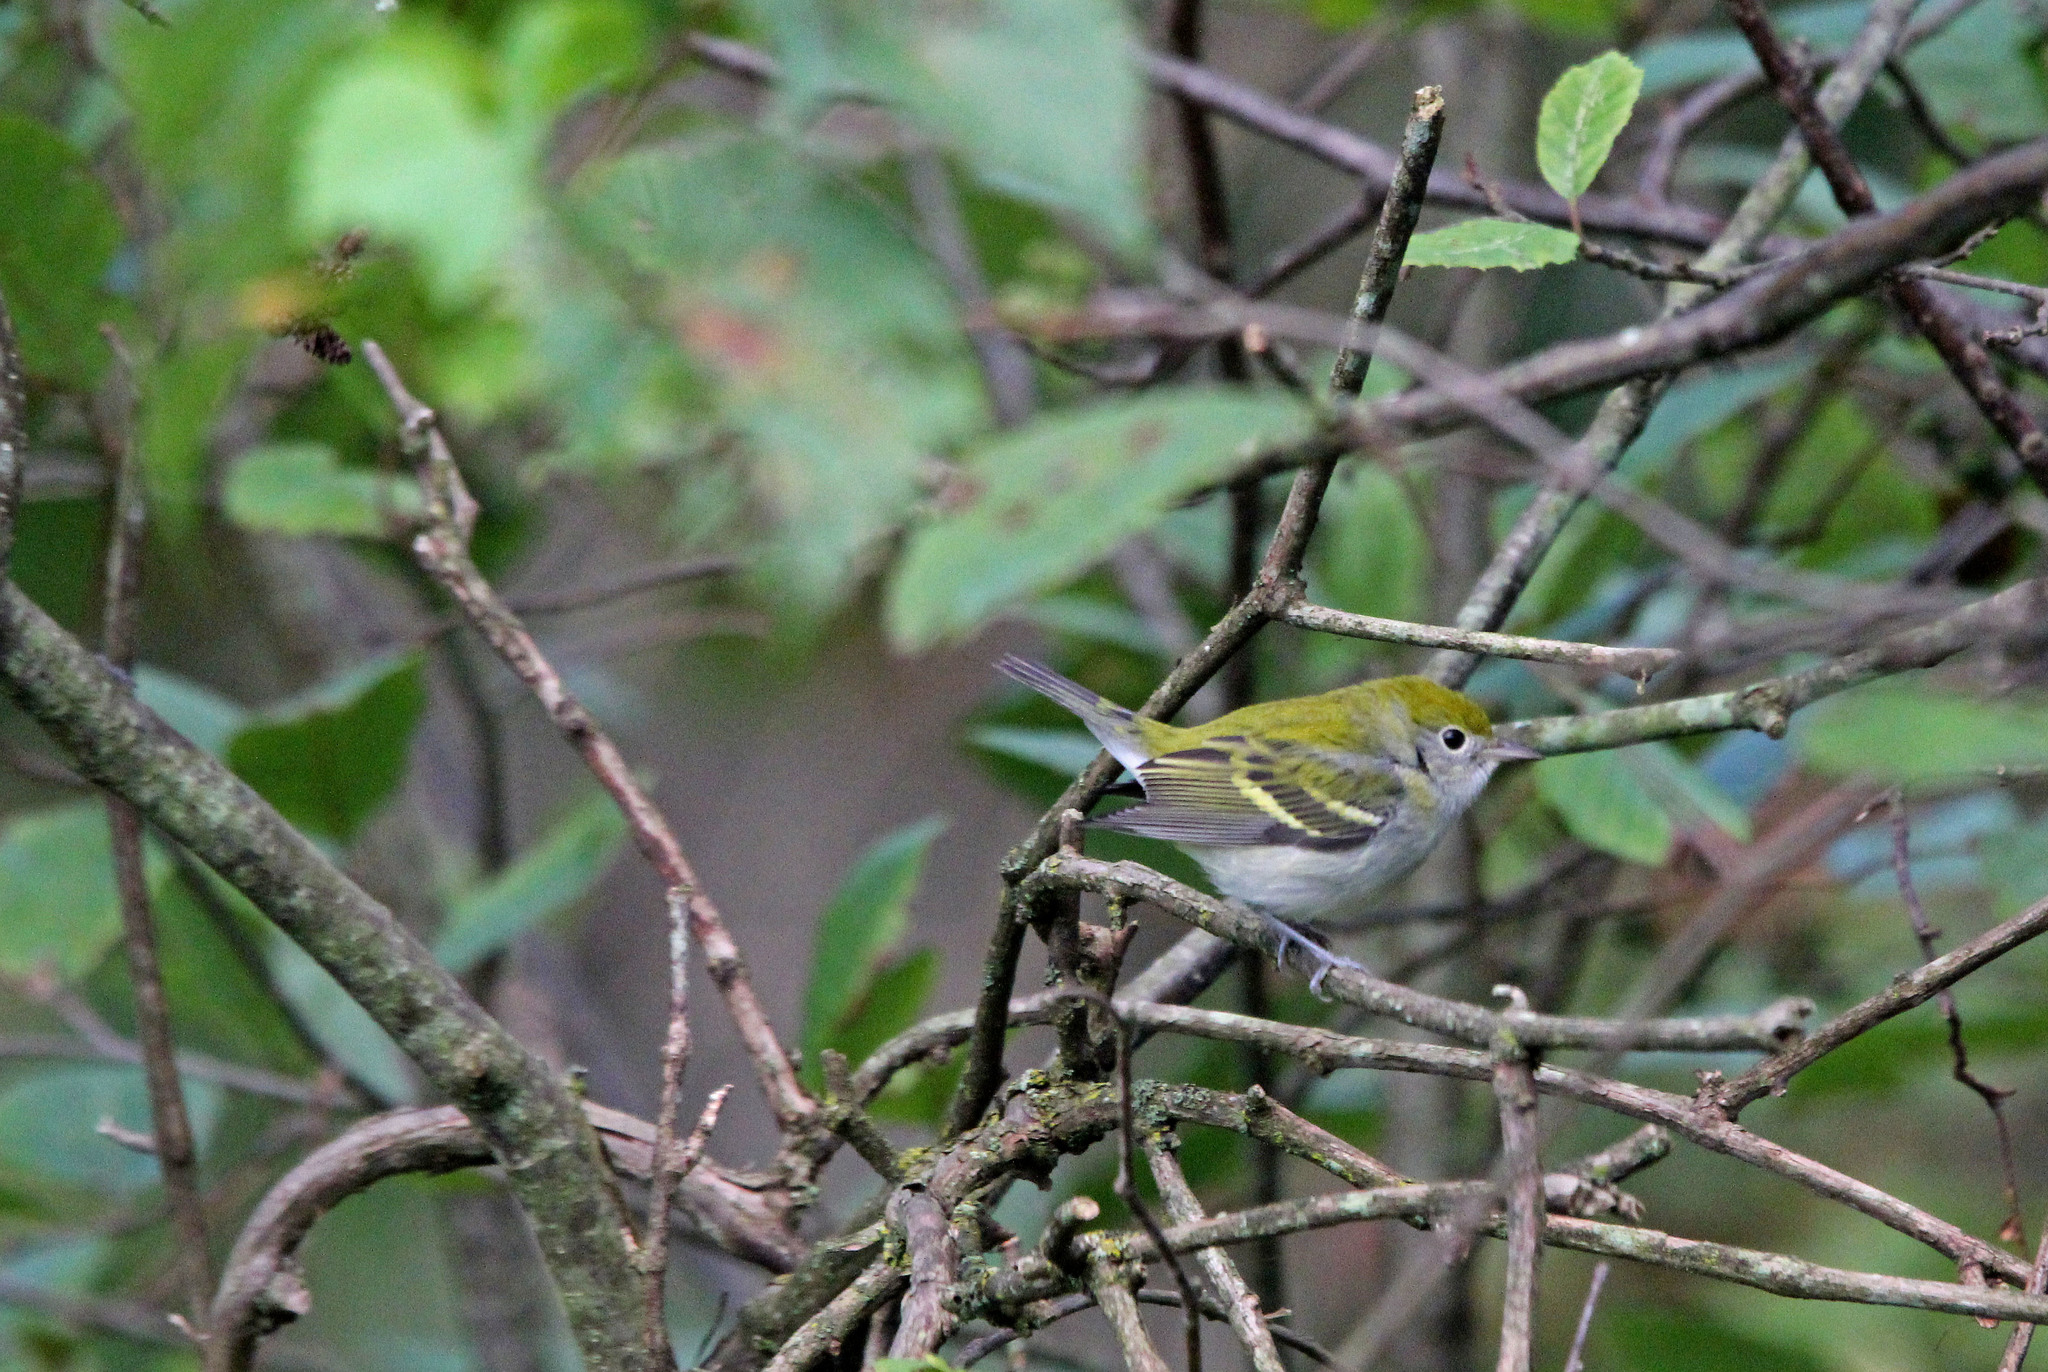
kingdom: Animalia
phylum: Chordata
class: Aves
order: Passeriformes
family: Parulidae
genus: Setophaga
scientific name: Setophaga pensylvanica
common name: Chestnut-sided warbler
